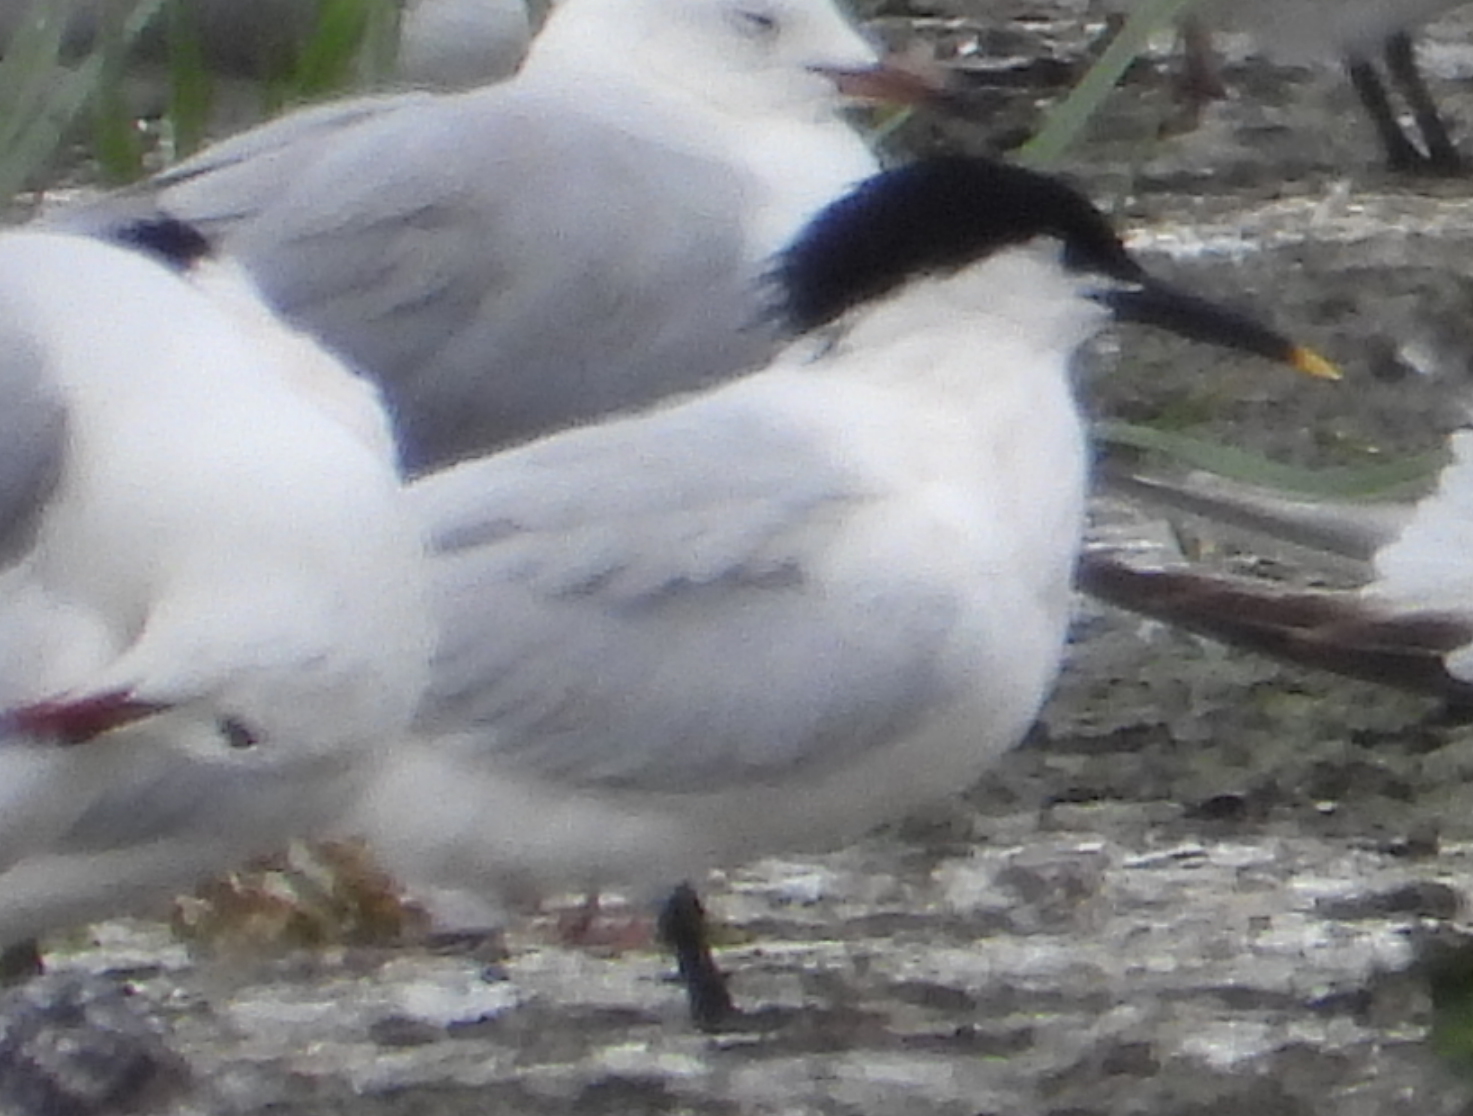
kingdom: Animalia
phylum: Chordata
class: Aves
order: Charadriiformes
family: Laridae
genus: Thalasseus
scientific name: Thalasseus sandvicensis
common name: Sandwich tern
